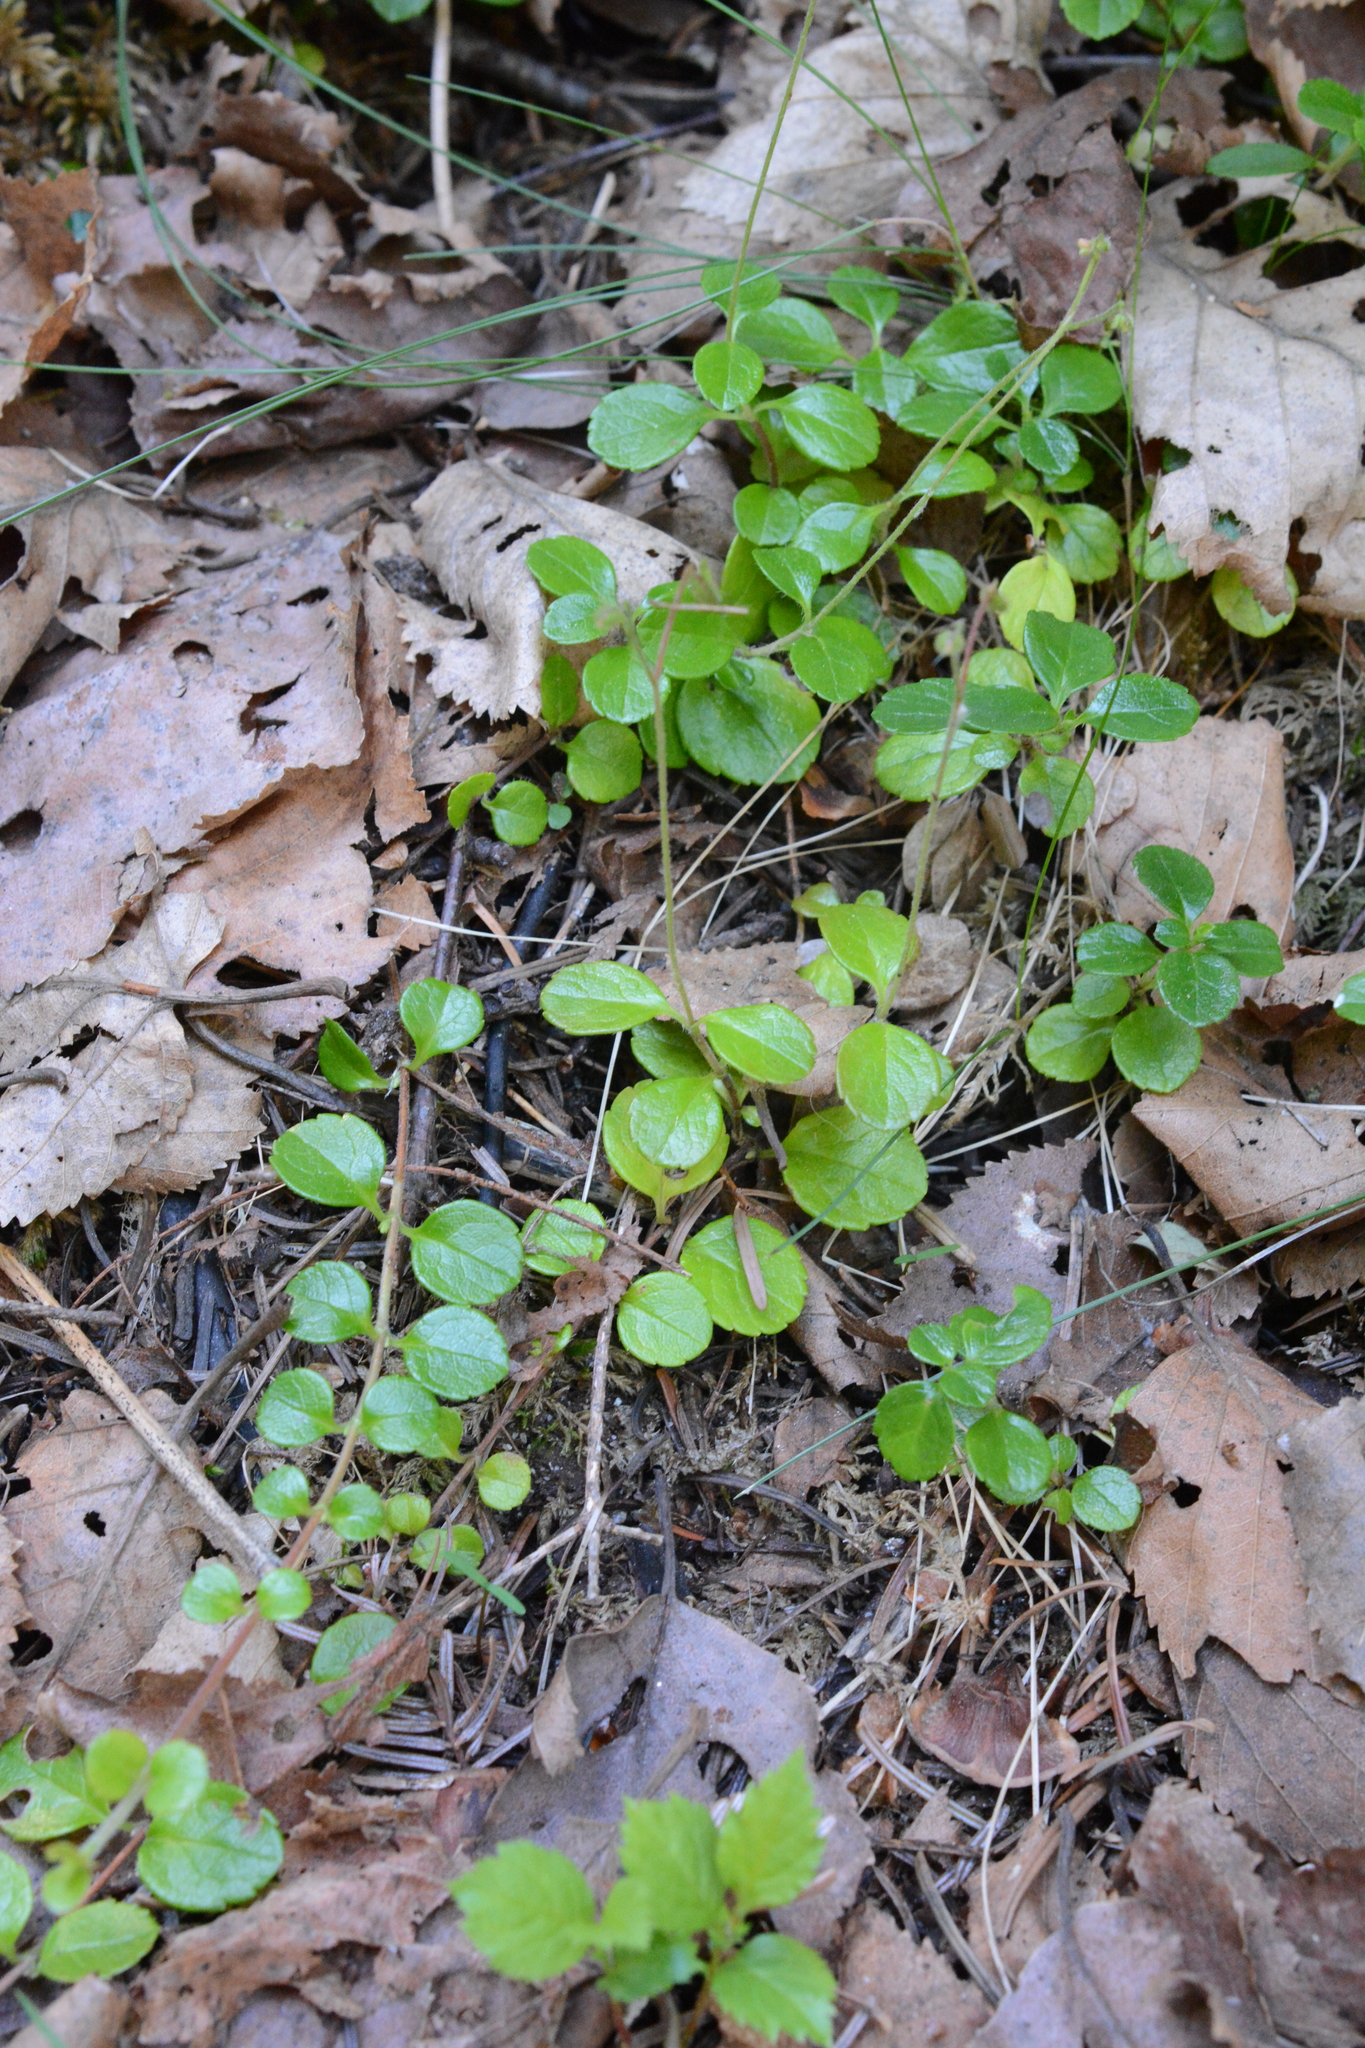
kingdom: Plantae
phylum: Tracheophyta
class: Magnoliopsida
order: Dipsacales
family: Caprifoliaceae
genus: Linnaea
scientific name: Linnaea borealis
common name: Twinflower
